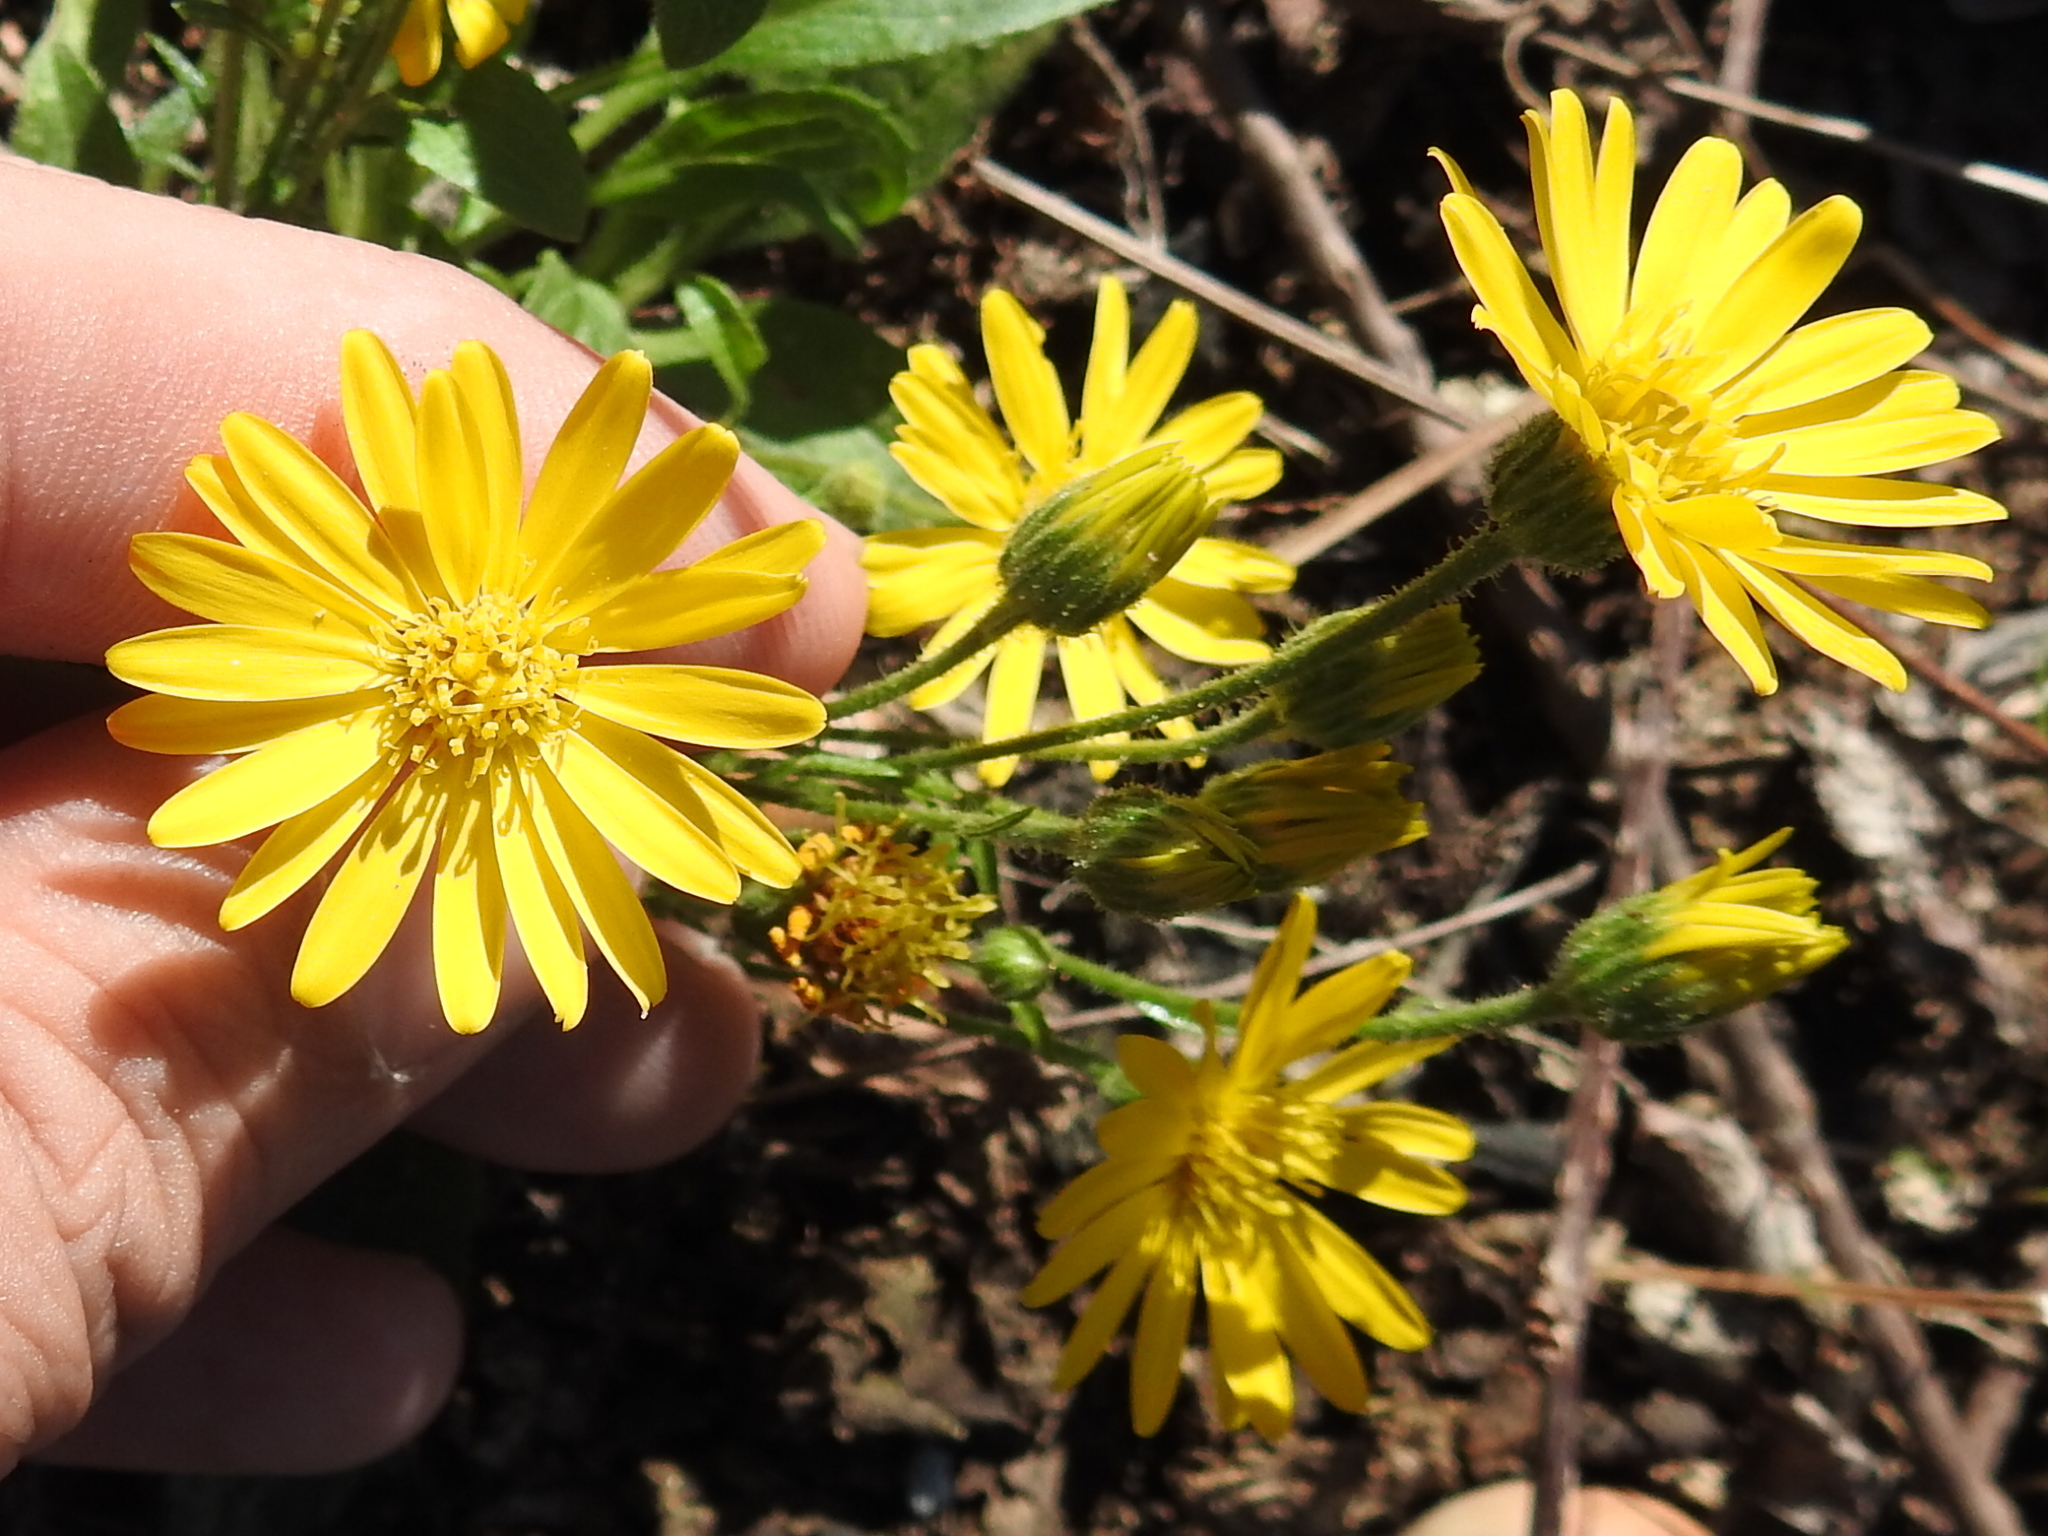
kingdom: Plantae
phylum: Tracheophyta
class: Magnoliopsida
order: Asterales
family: Asteraceae
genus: Heterotheca
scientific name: Heterotheca subaxillaris
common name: Camphorweed
